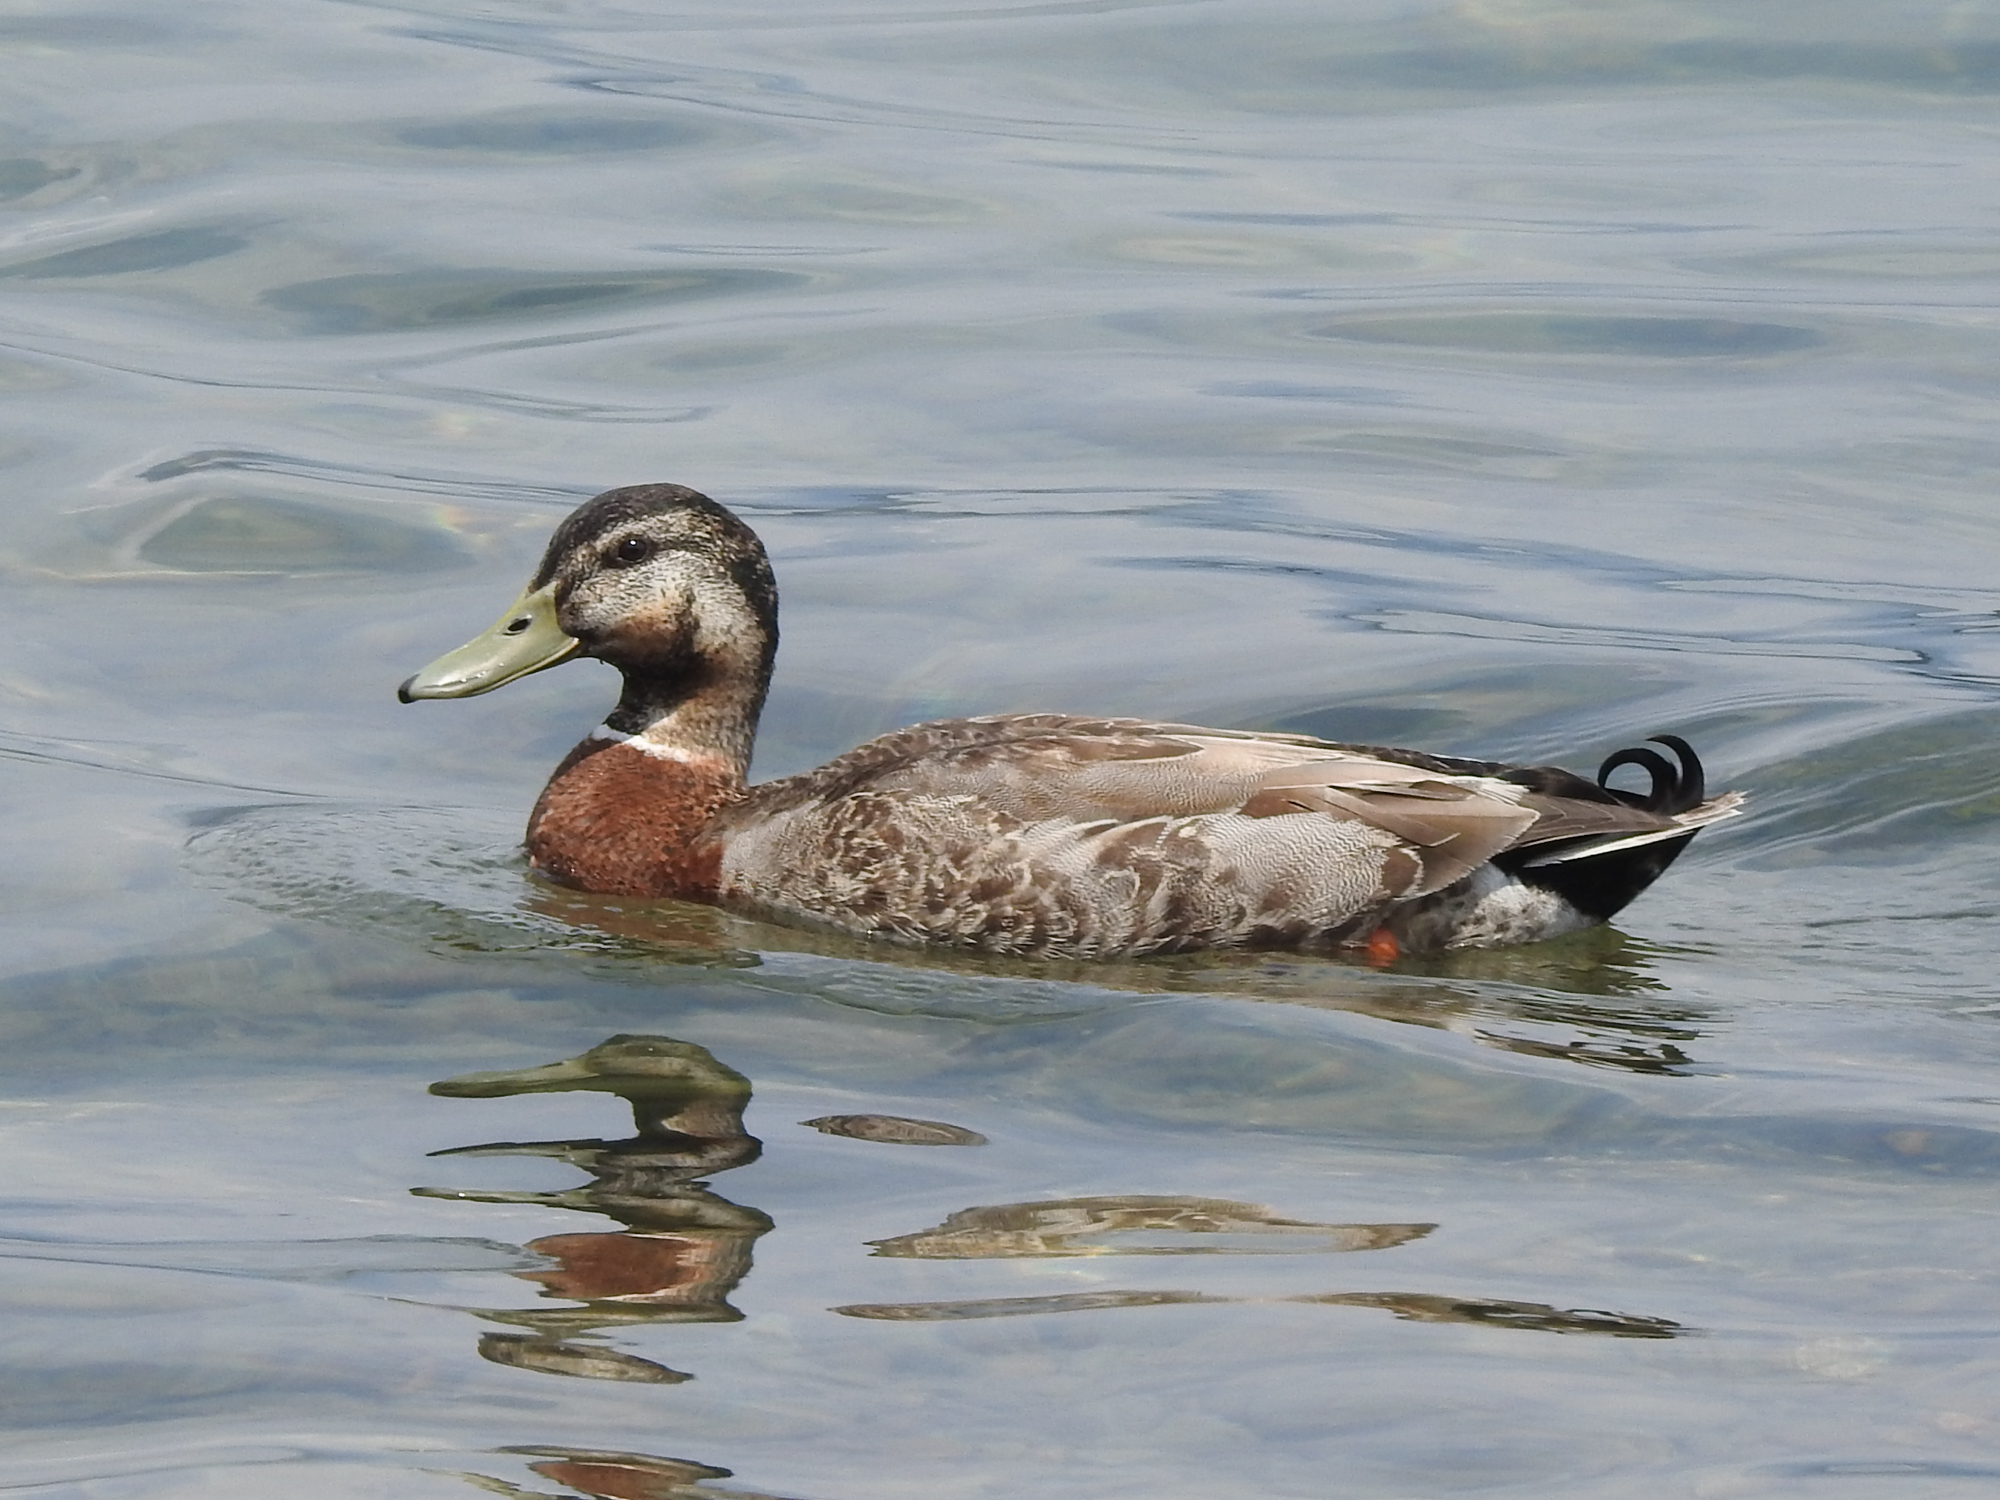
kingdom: Animalia
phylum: Chordata
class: Aves
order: Anseriformes
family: Anatidae
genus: Anas
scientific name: Anas
